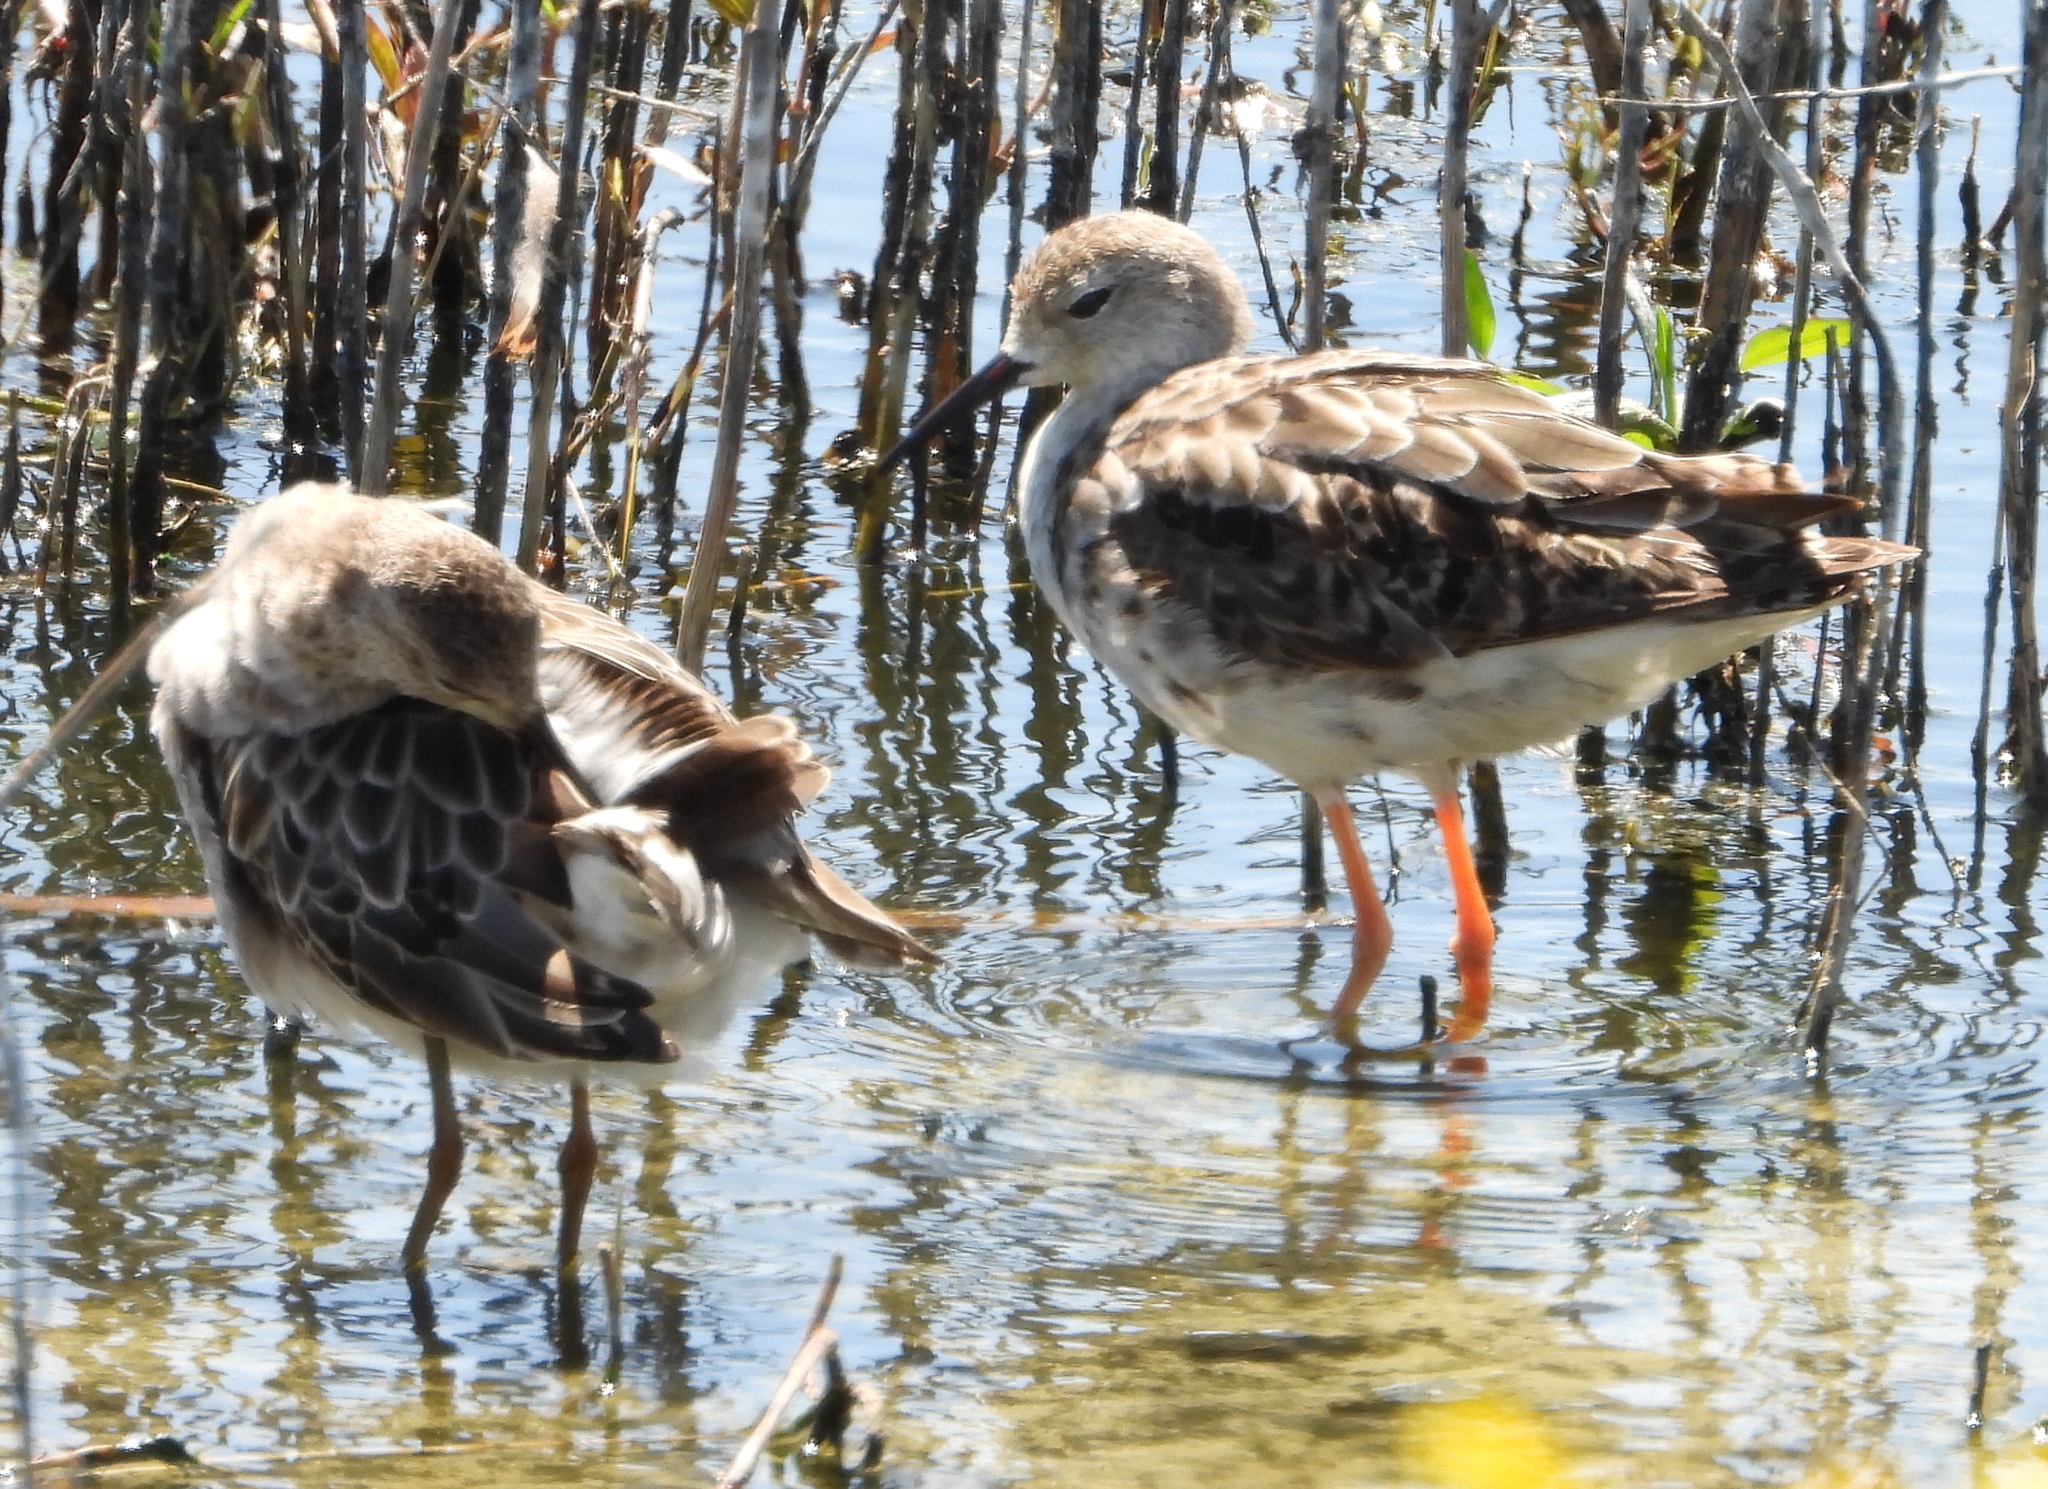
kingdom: Animalia
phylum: Chordata
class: Aves
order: Charadriiformes
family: Scolopacidae
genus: Calidris
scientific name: Calidris pugnax
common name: Ruff
